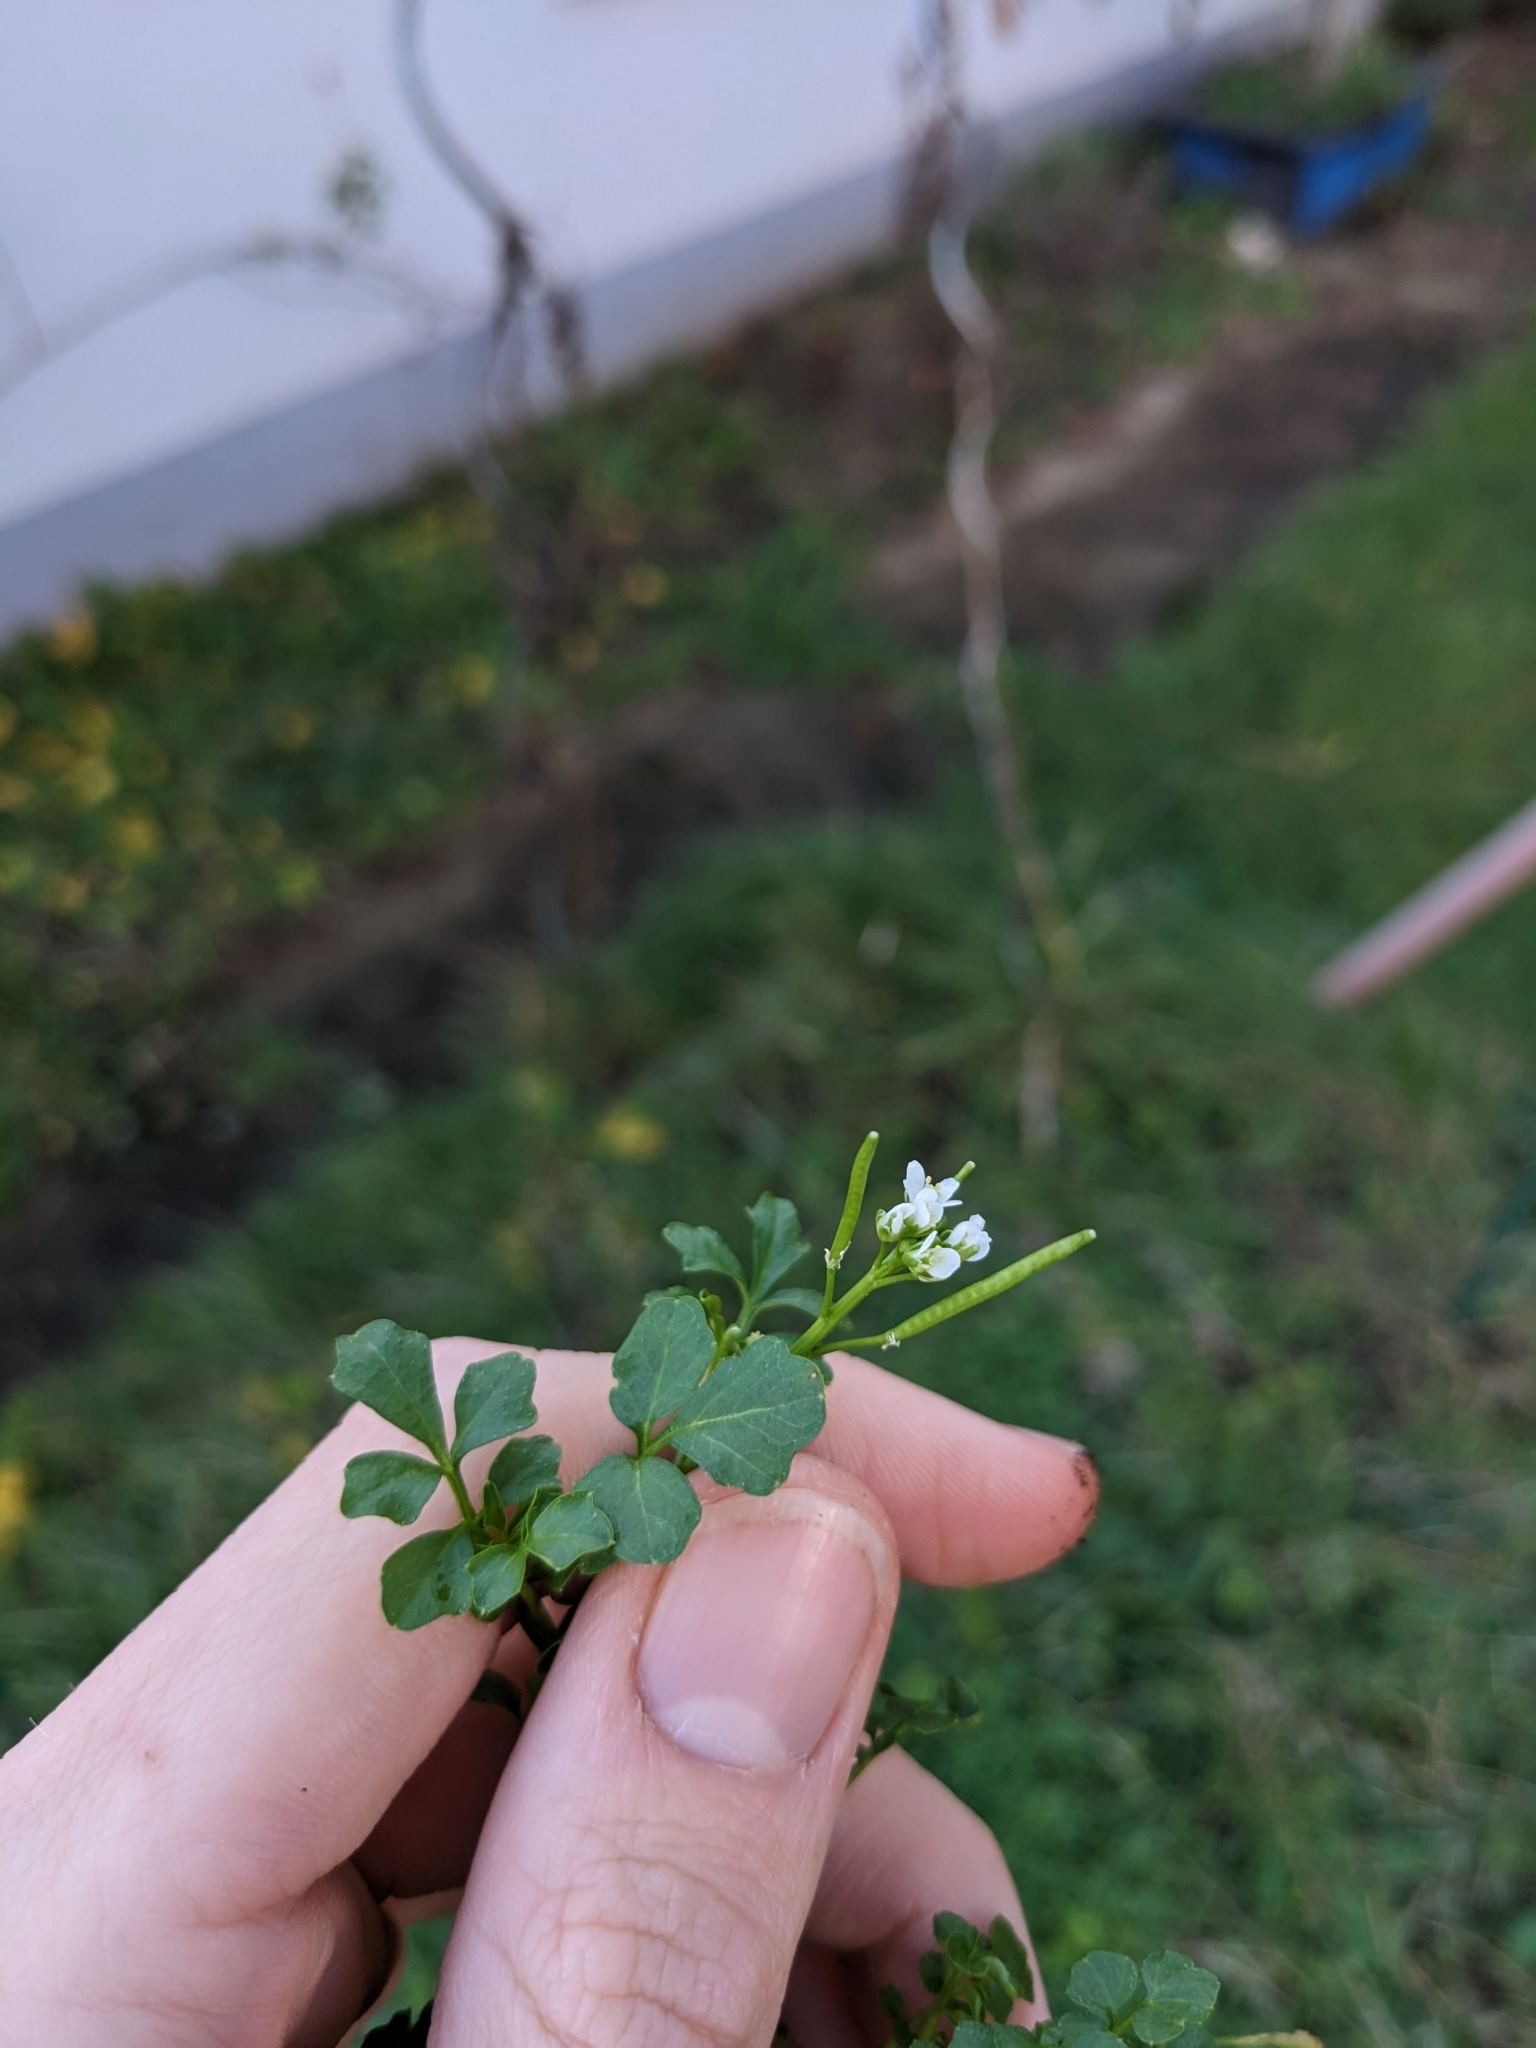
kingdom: Plantae
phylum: Tracheophyta
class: Magnoliopsida
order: Brassicales
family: Brassicaceae
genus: Cardamine
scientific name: Cardamine hirsuta
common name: Hairy bittercress
